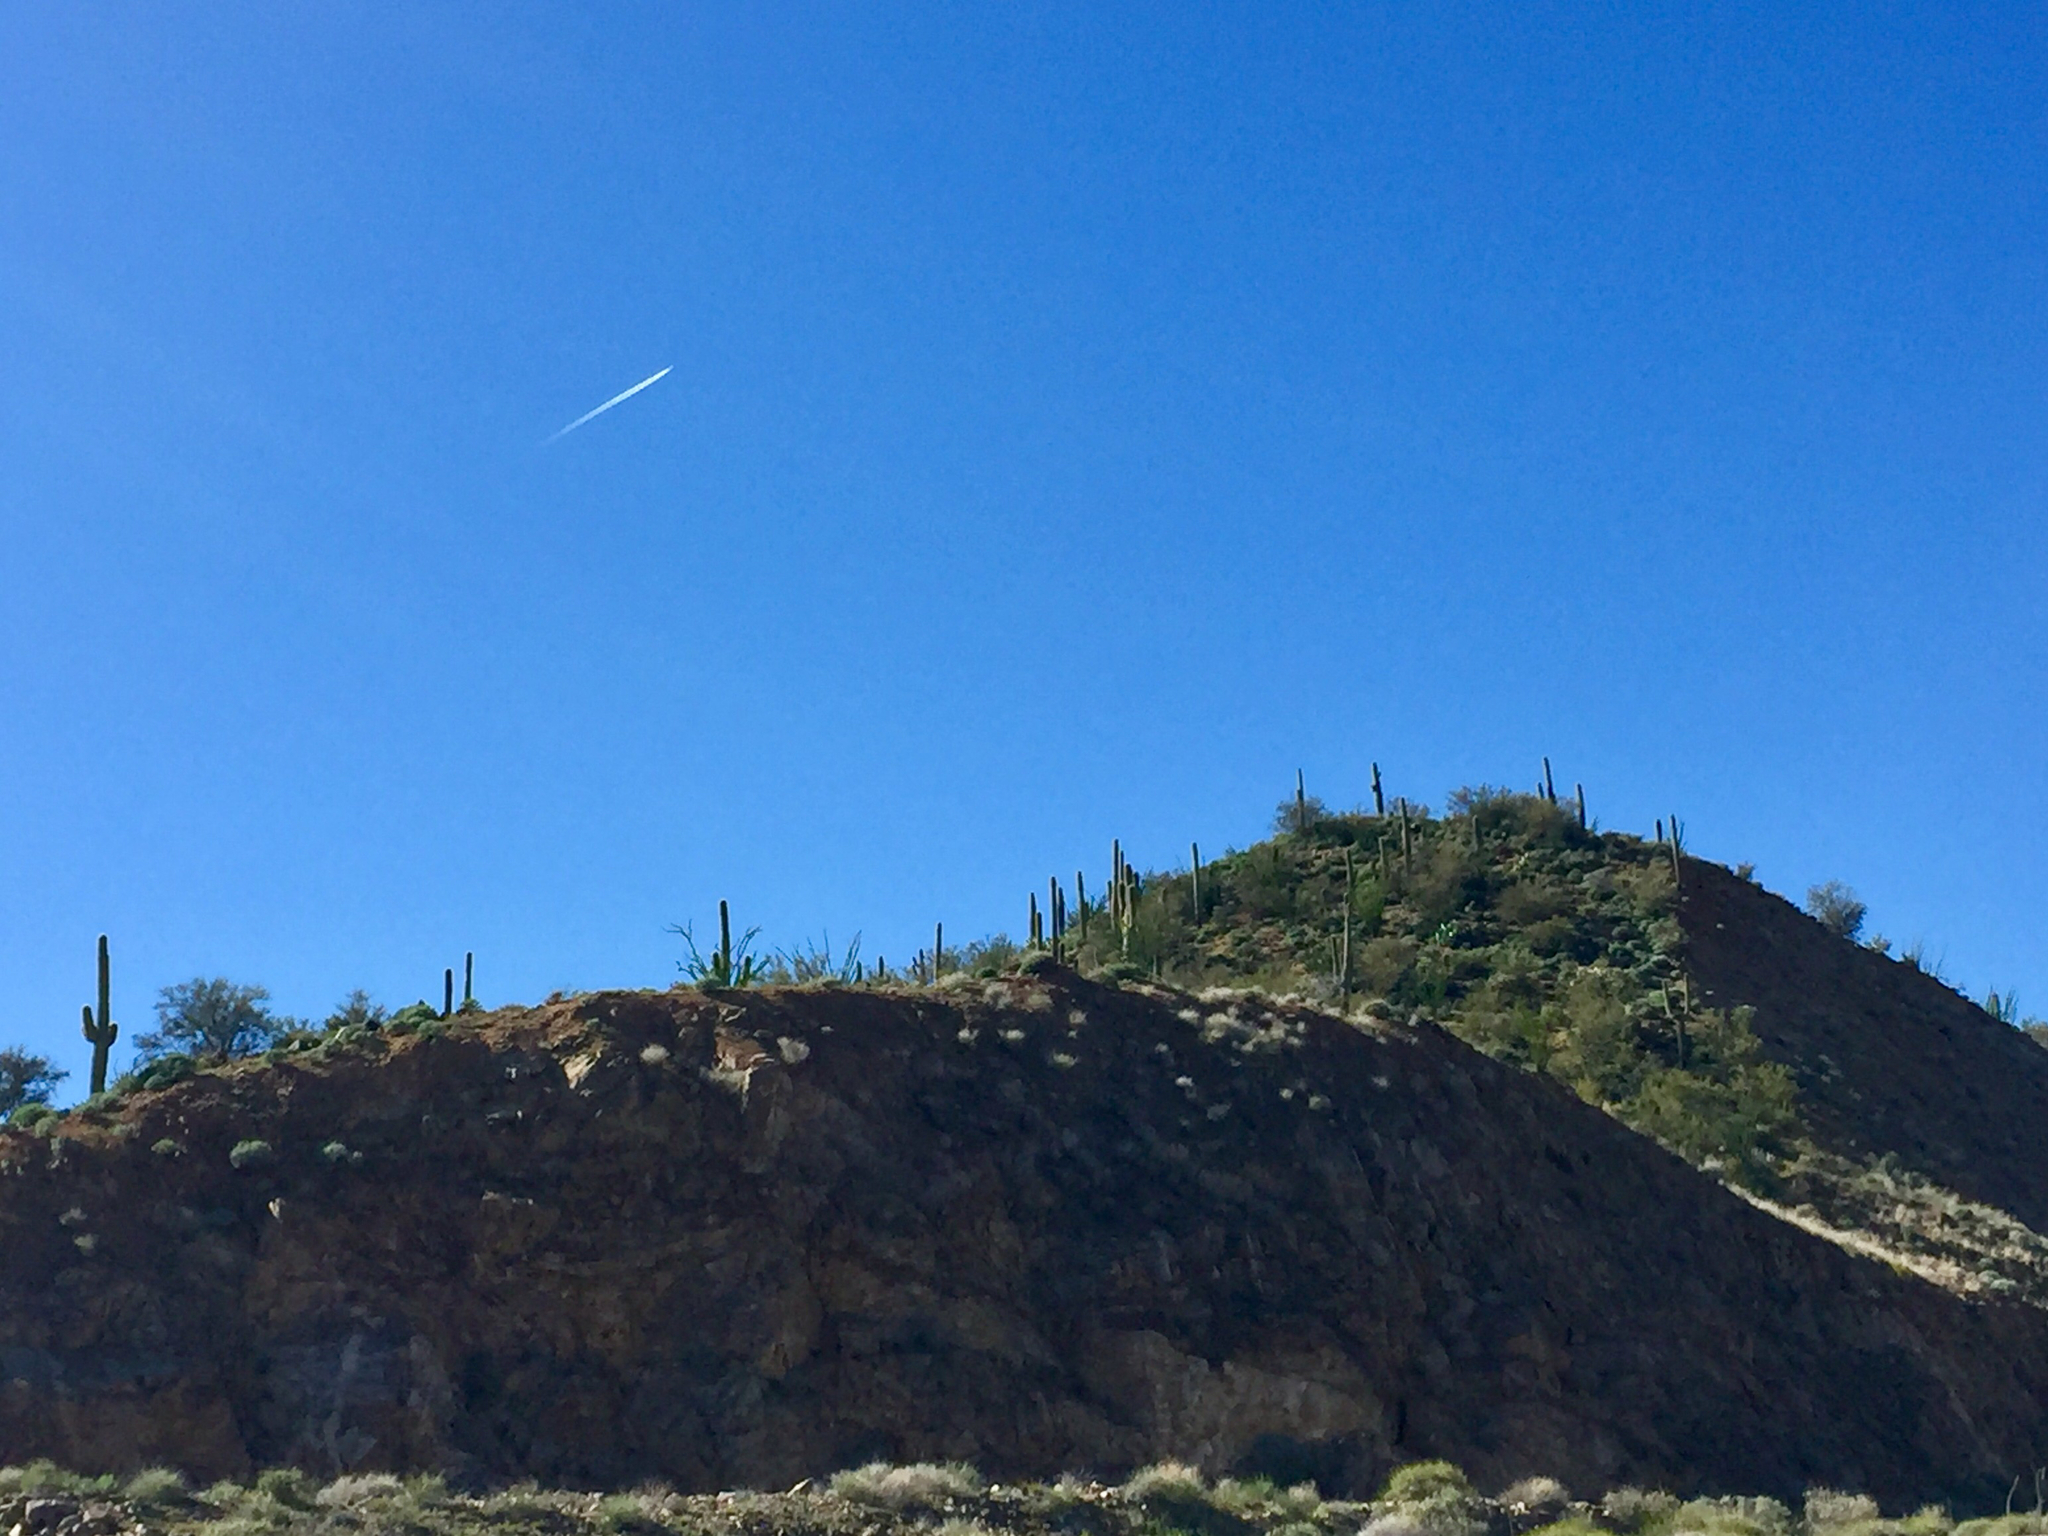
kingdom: Plantae
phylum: Tracheophyta
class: Magnoliopsida
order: Caryophyllales
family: Cactaceae
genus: Carnegiea
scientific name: Carnegiea gigantea
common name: Saguaro
